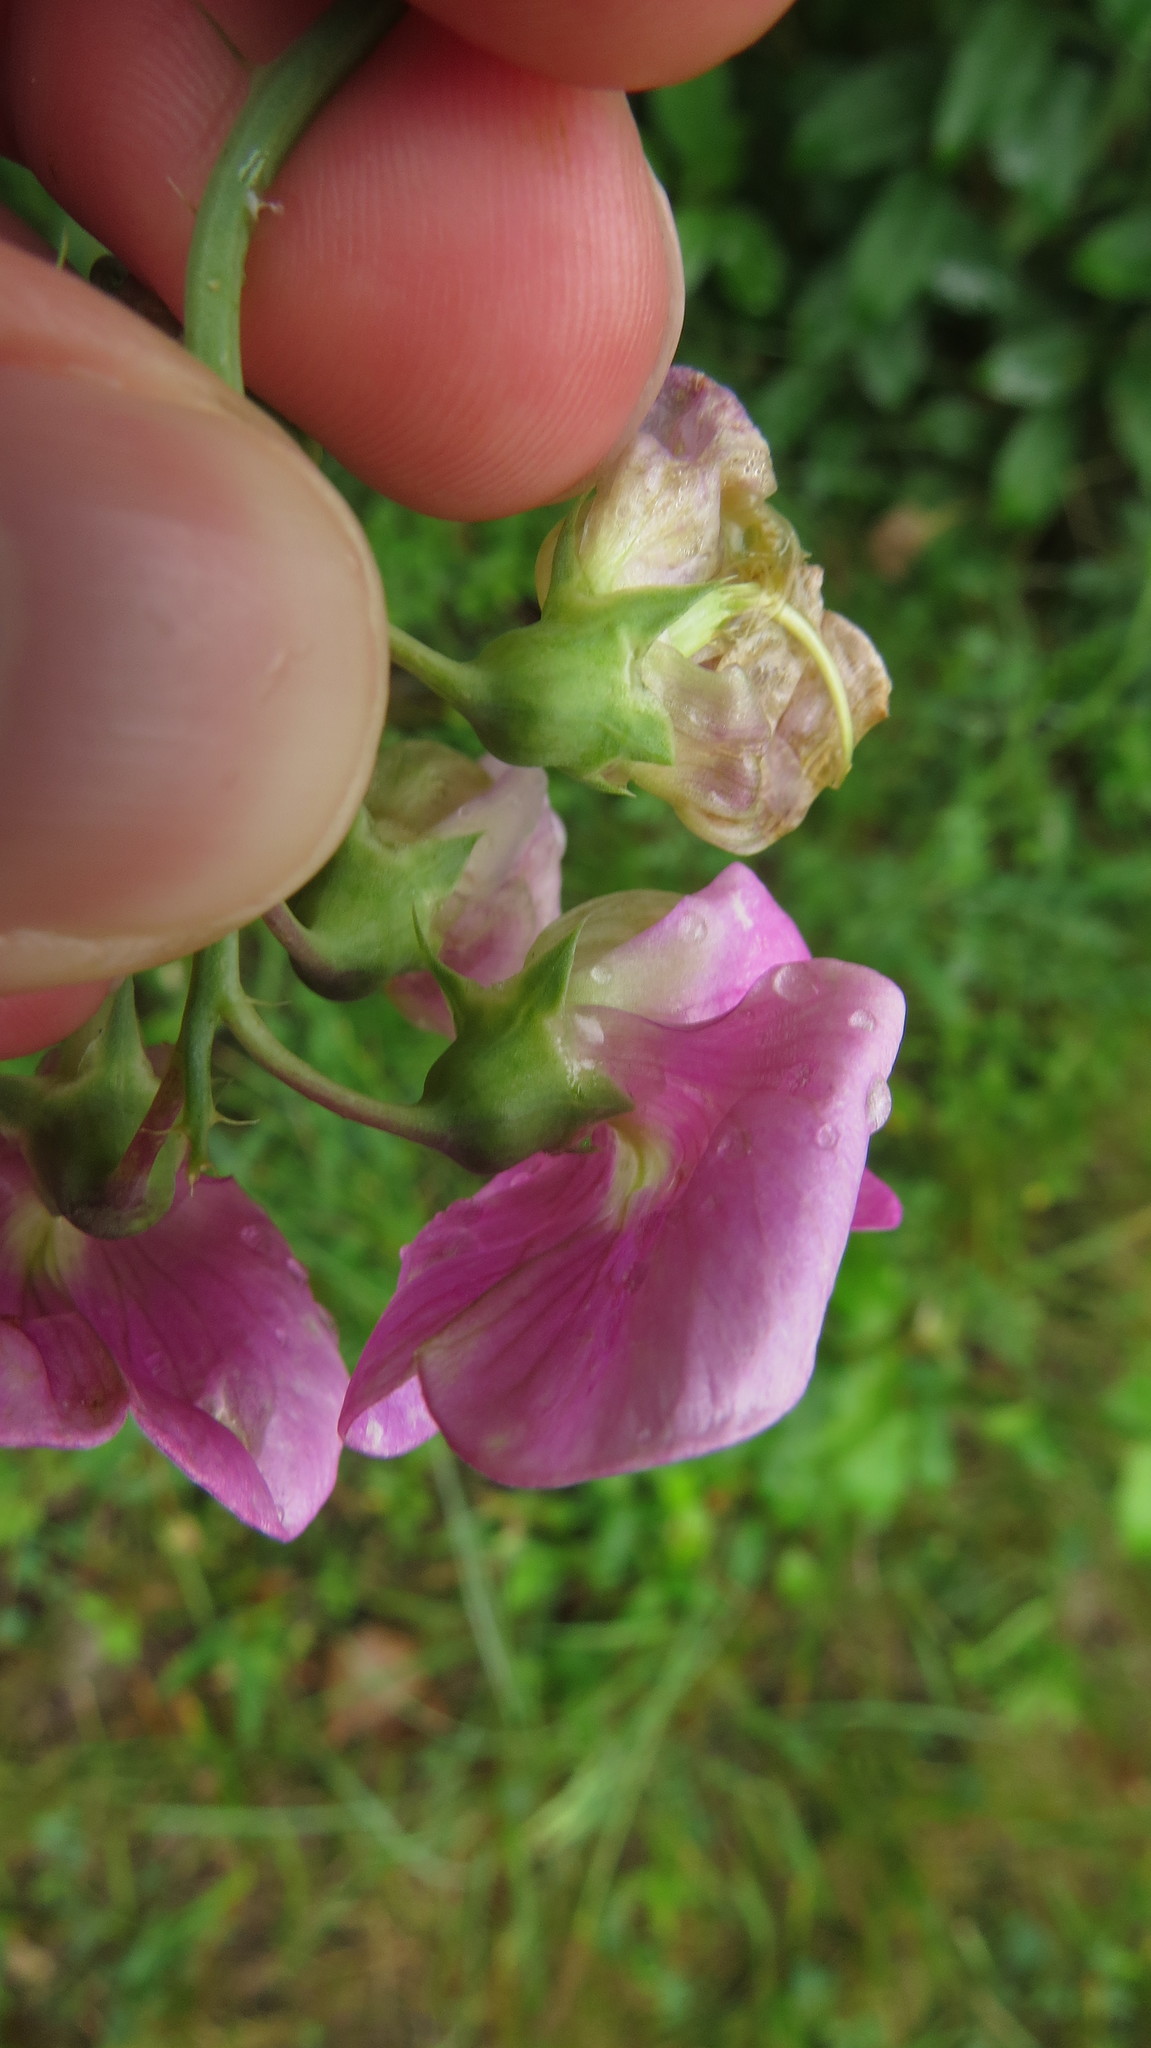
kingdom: Plantae
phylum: Tracheophyta
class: Magnoliopsida
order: Fabales
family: Fabaceae
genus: Lathyrus
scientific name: Lathyrus latifolius
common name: Perennial pea
